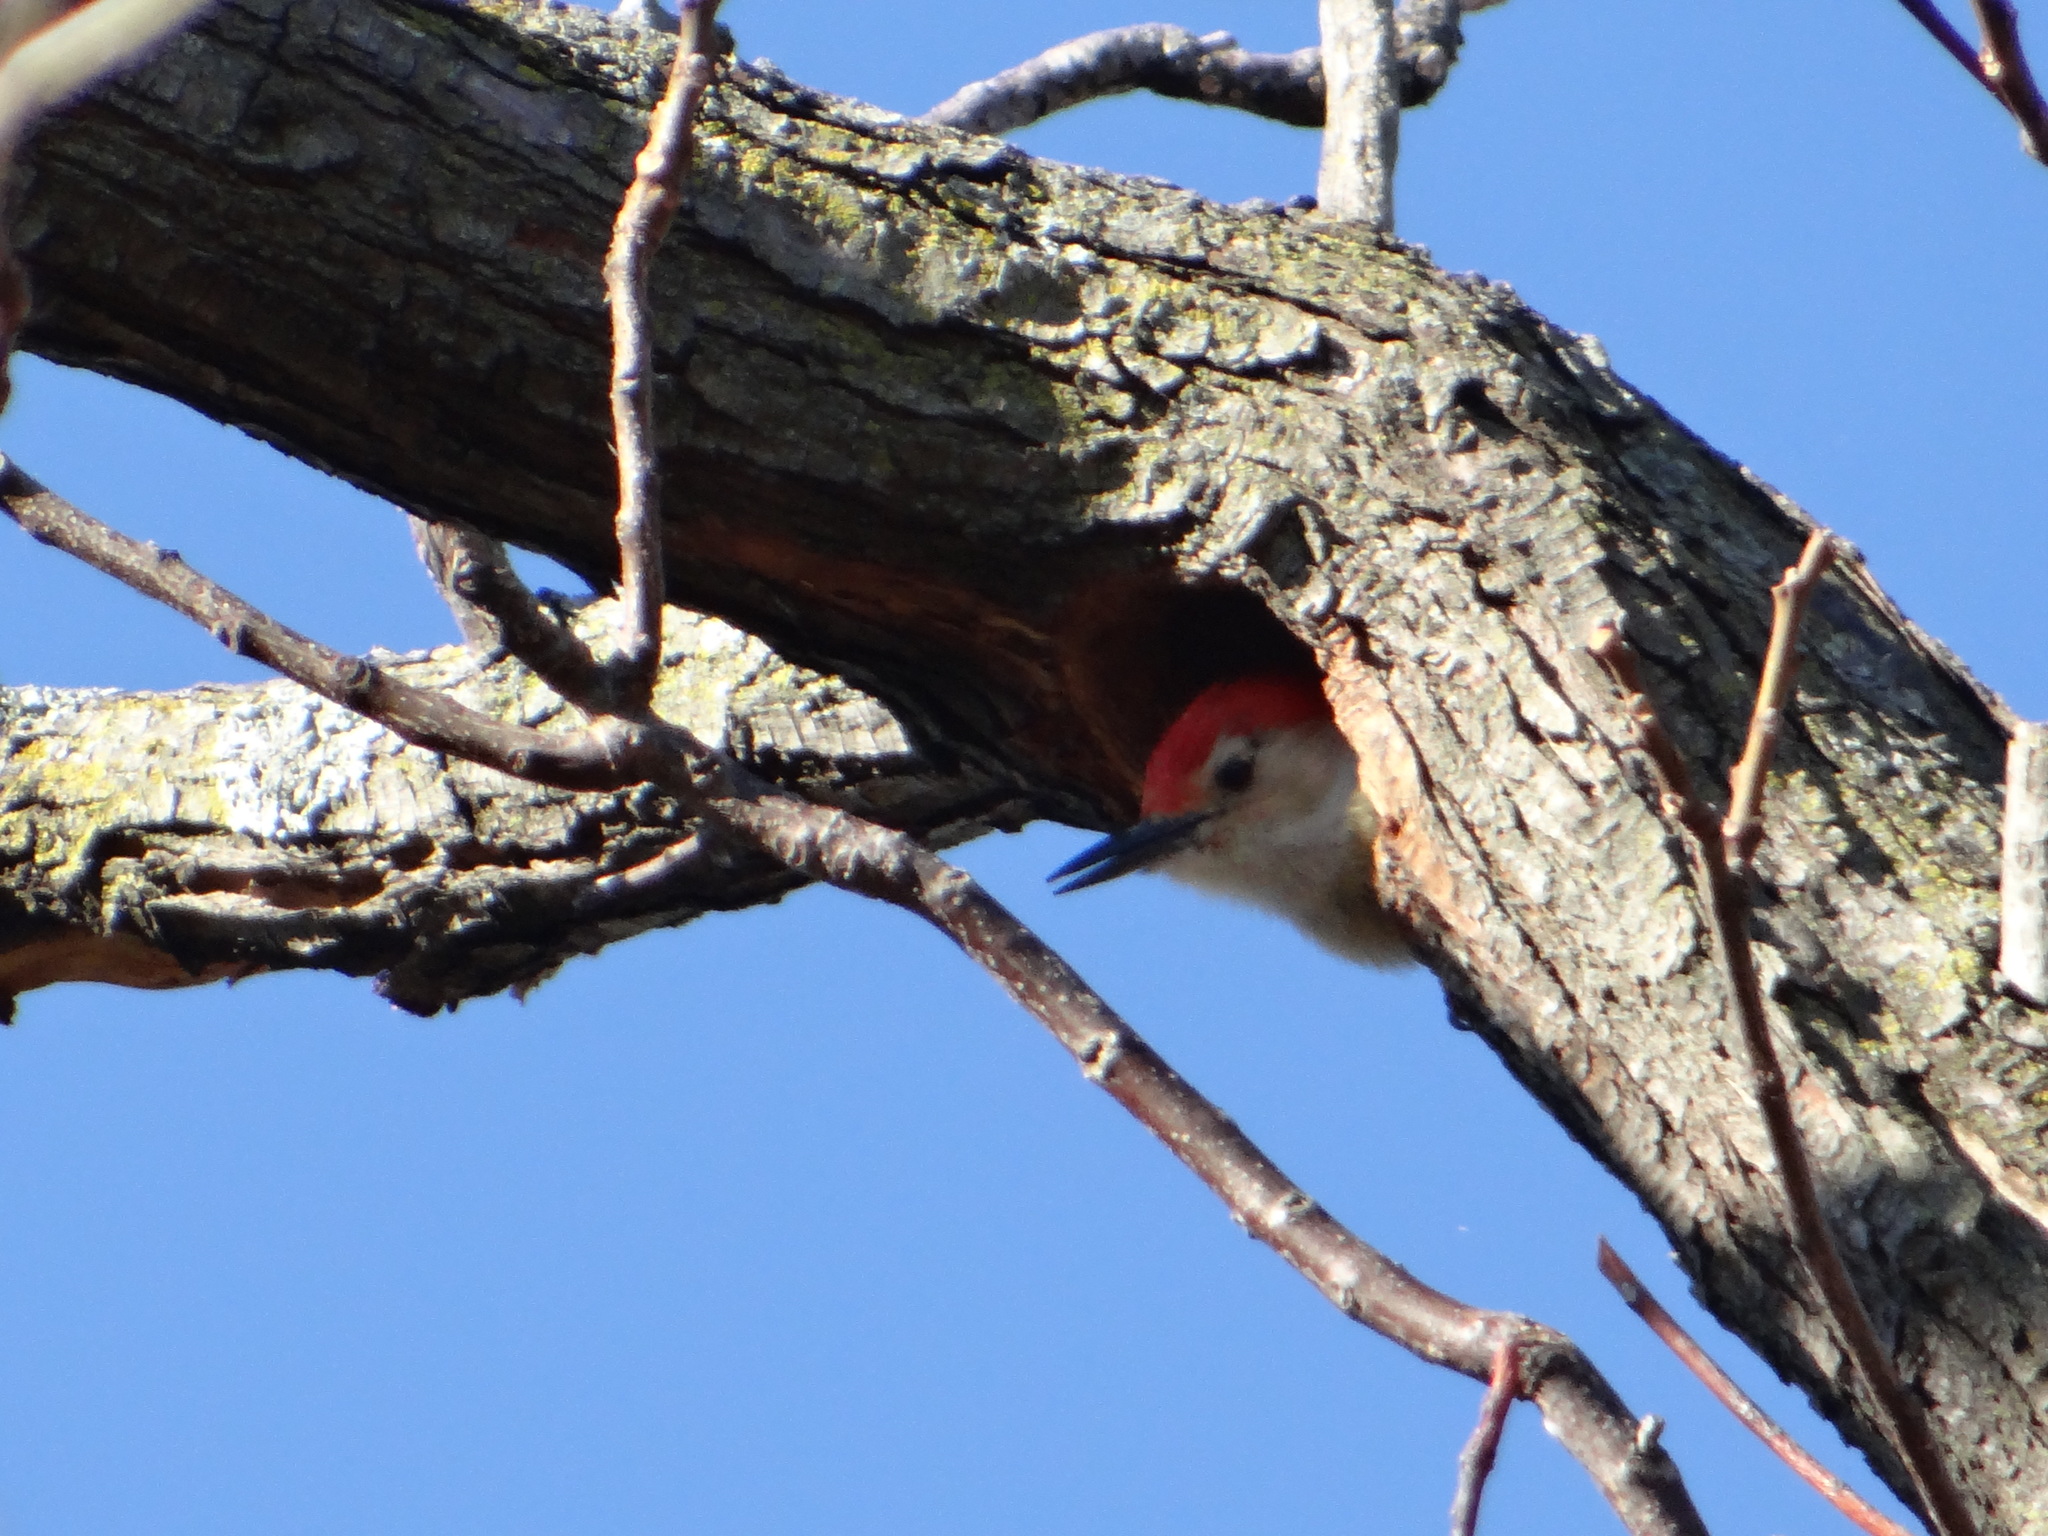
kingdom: Animalia
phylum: Chordata
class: Aves
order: Piciformes
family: Picidae
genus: Melanerpes
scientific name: Melanerpes carolinus
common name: Red-bellied woodpecker
